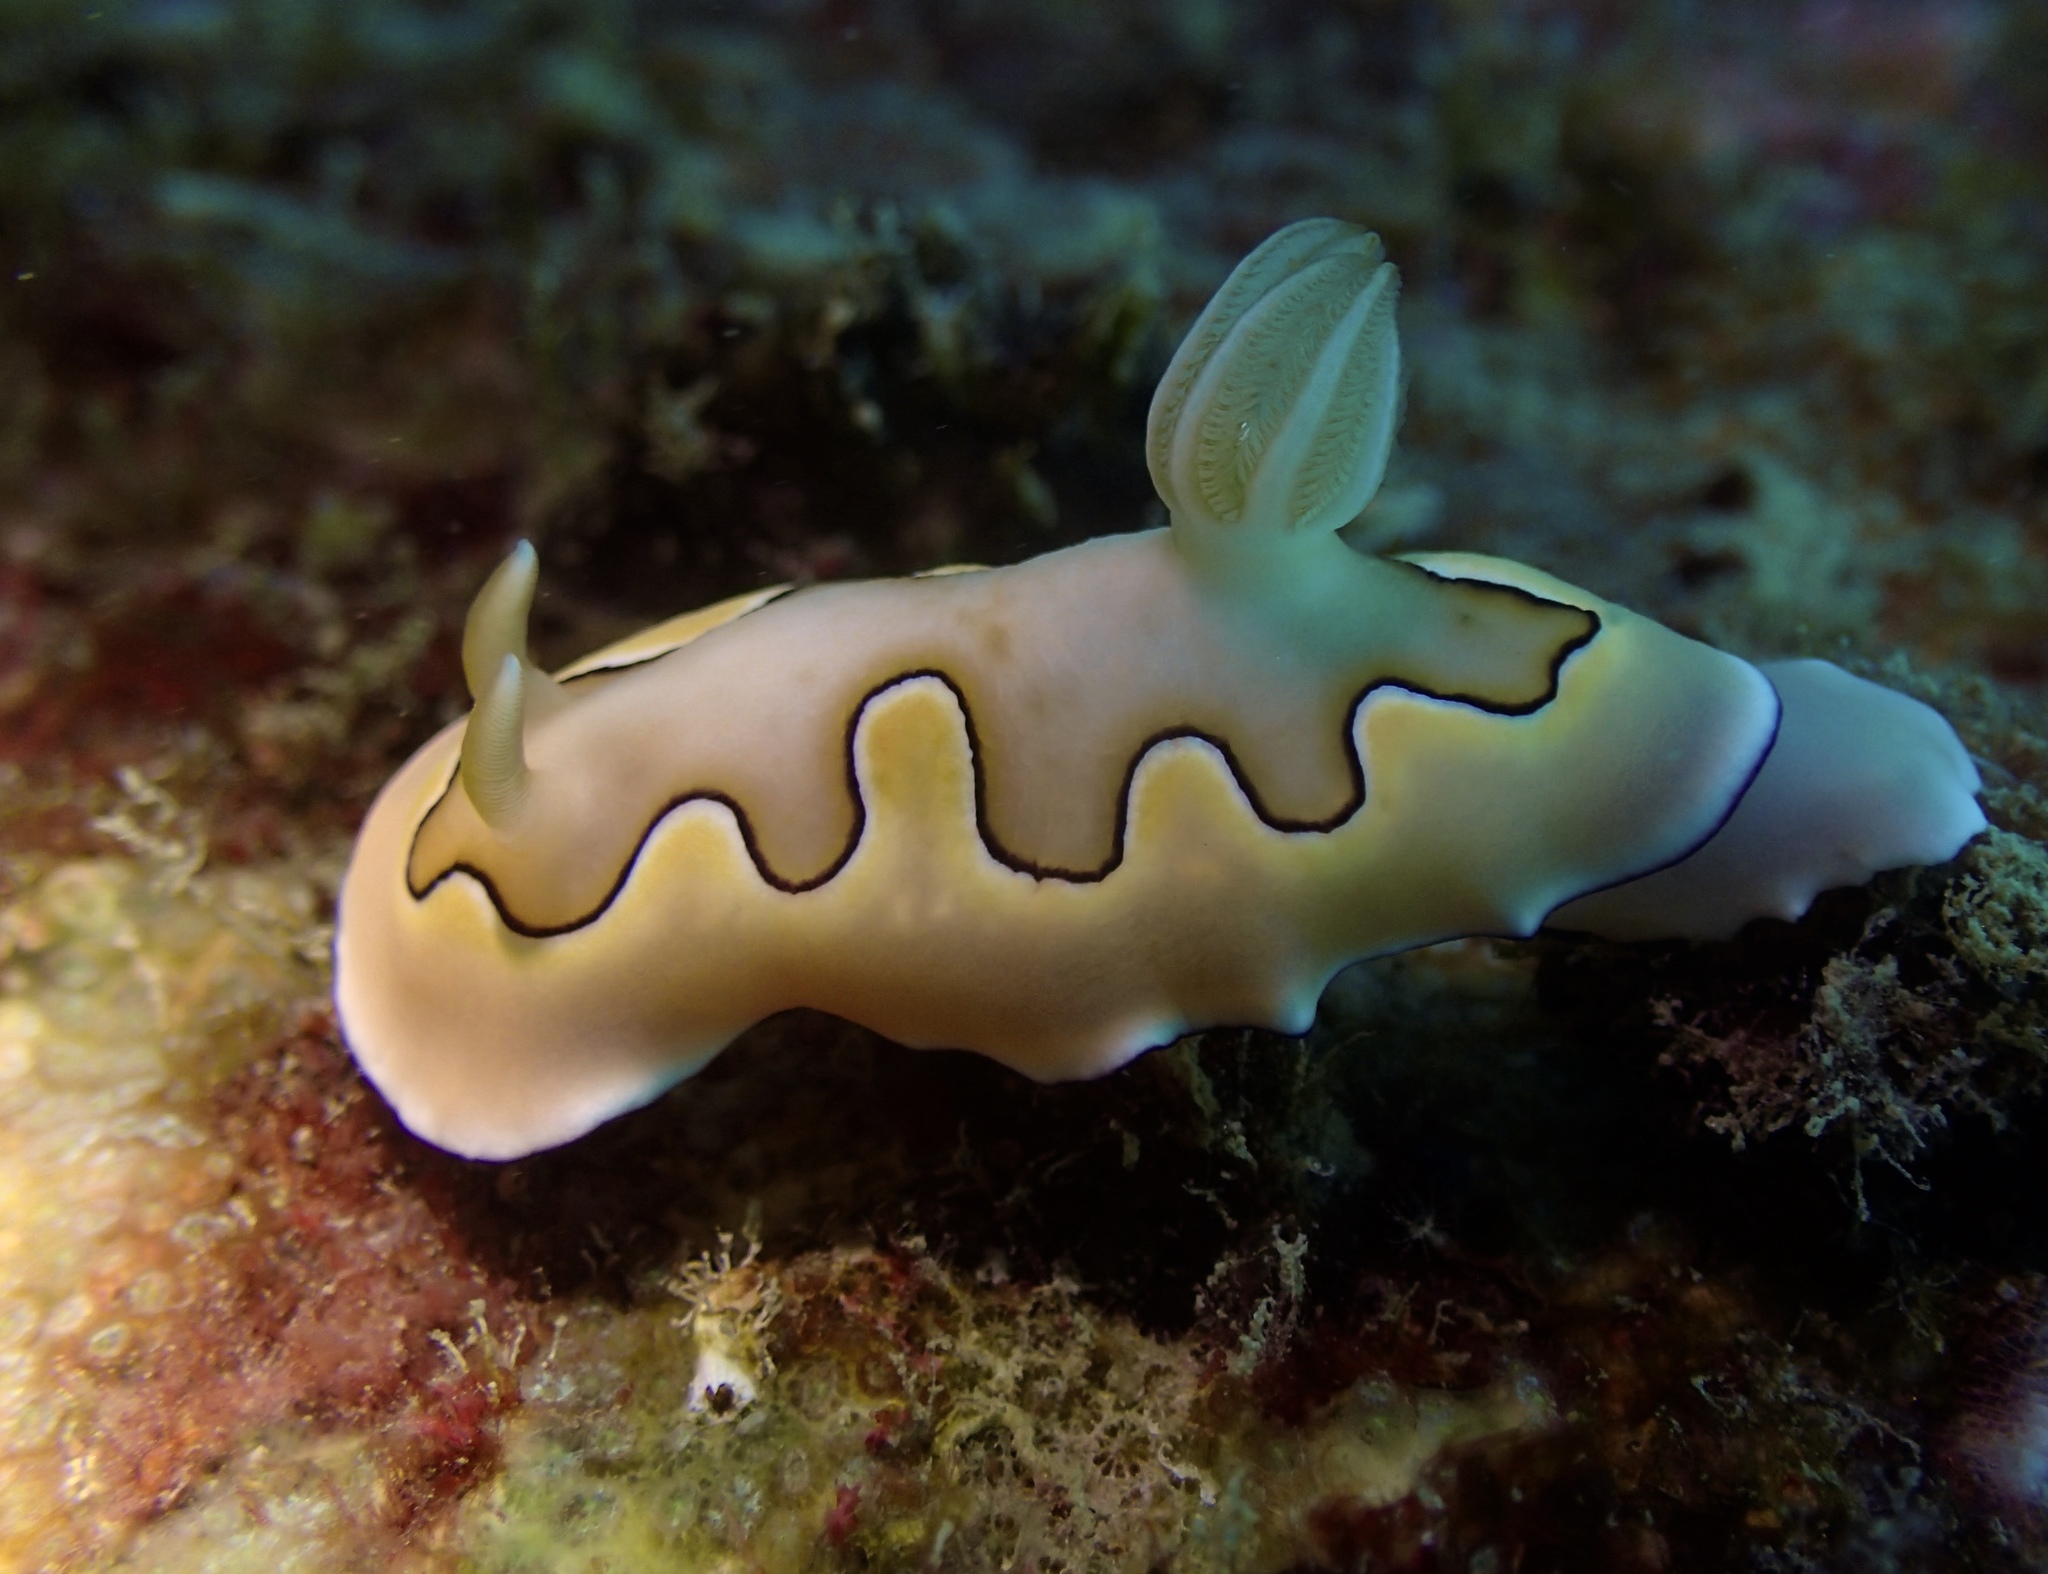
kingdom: Animalia
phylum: Mollusca
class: Gastropoda
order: Nudibranchia
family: Chromodorididae
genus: Goniobranchus
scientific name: Goniobranchus coi
